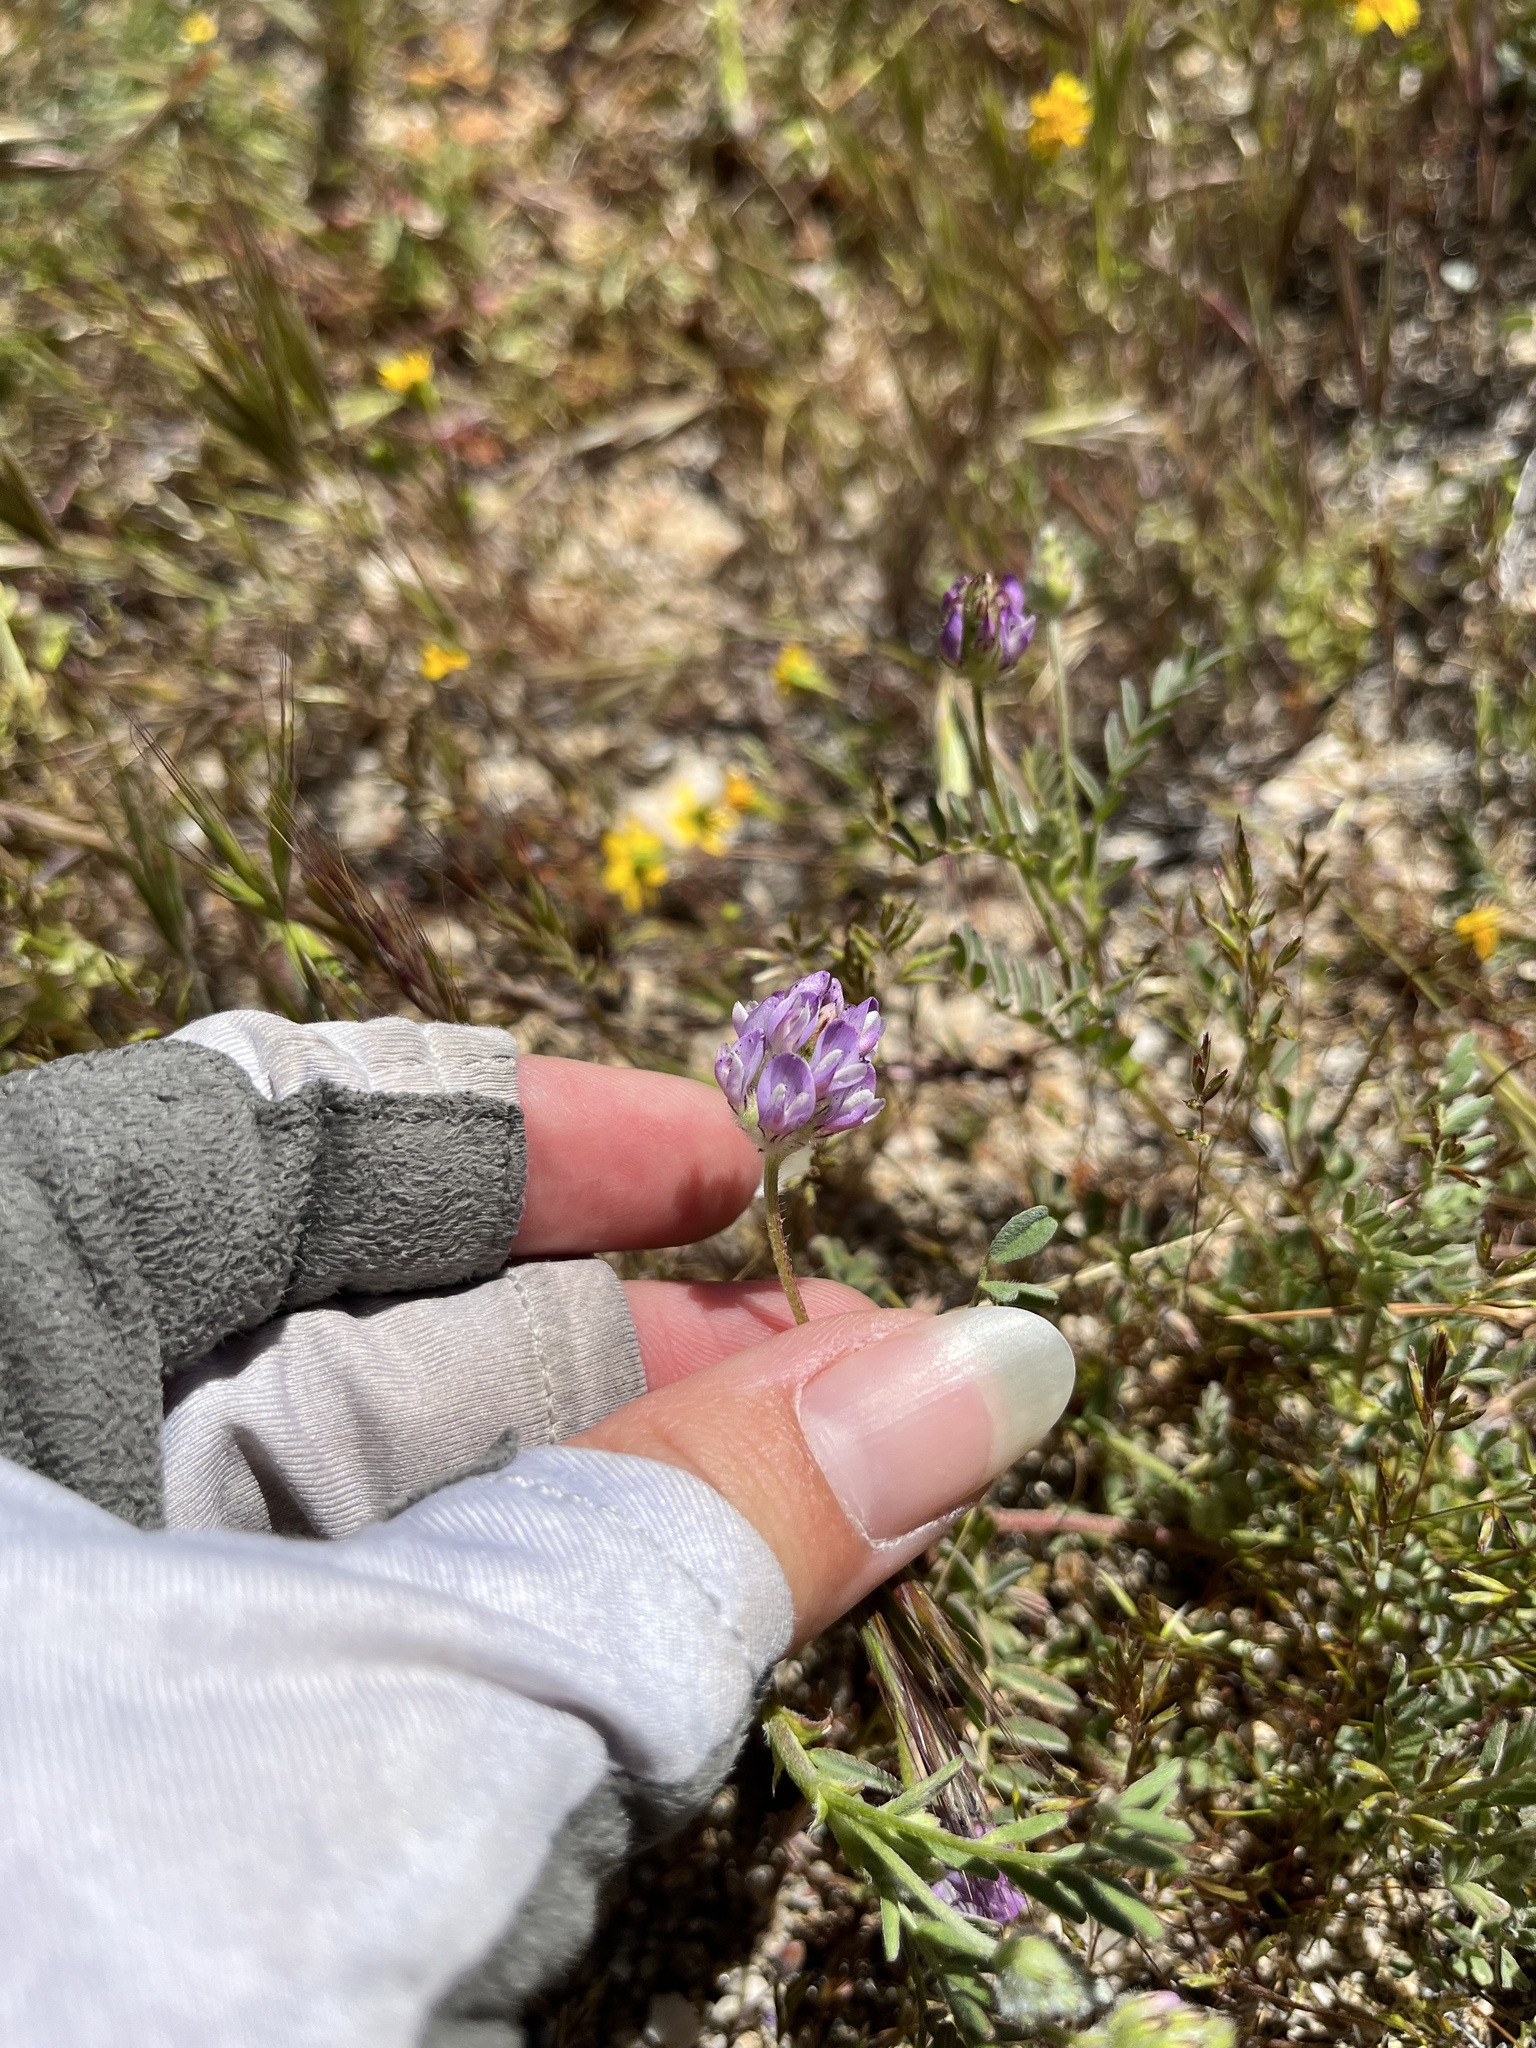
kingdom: Plantae
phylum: Tracheophyta
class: Magnoliopsida
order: Fabales
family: Fabaceae
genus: Astragalus
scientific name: Astragalus didymocarpus
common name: Dwarf white milkvetch
